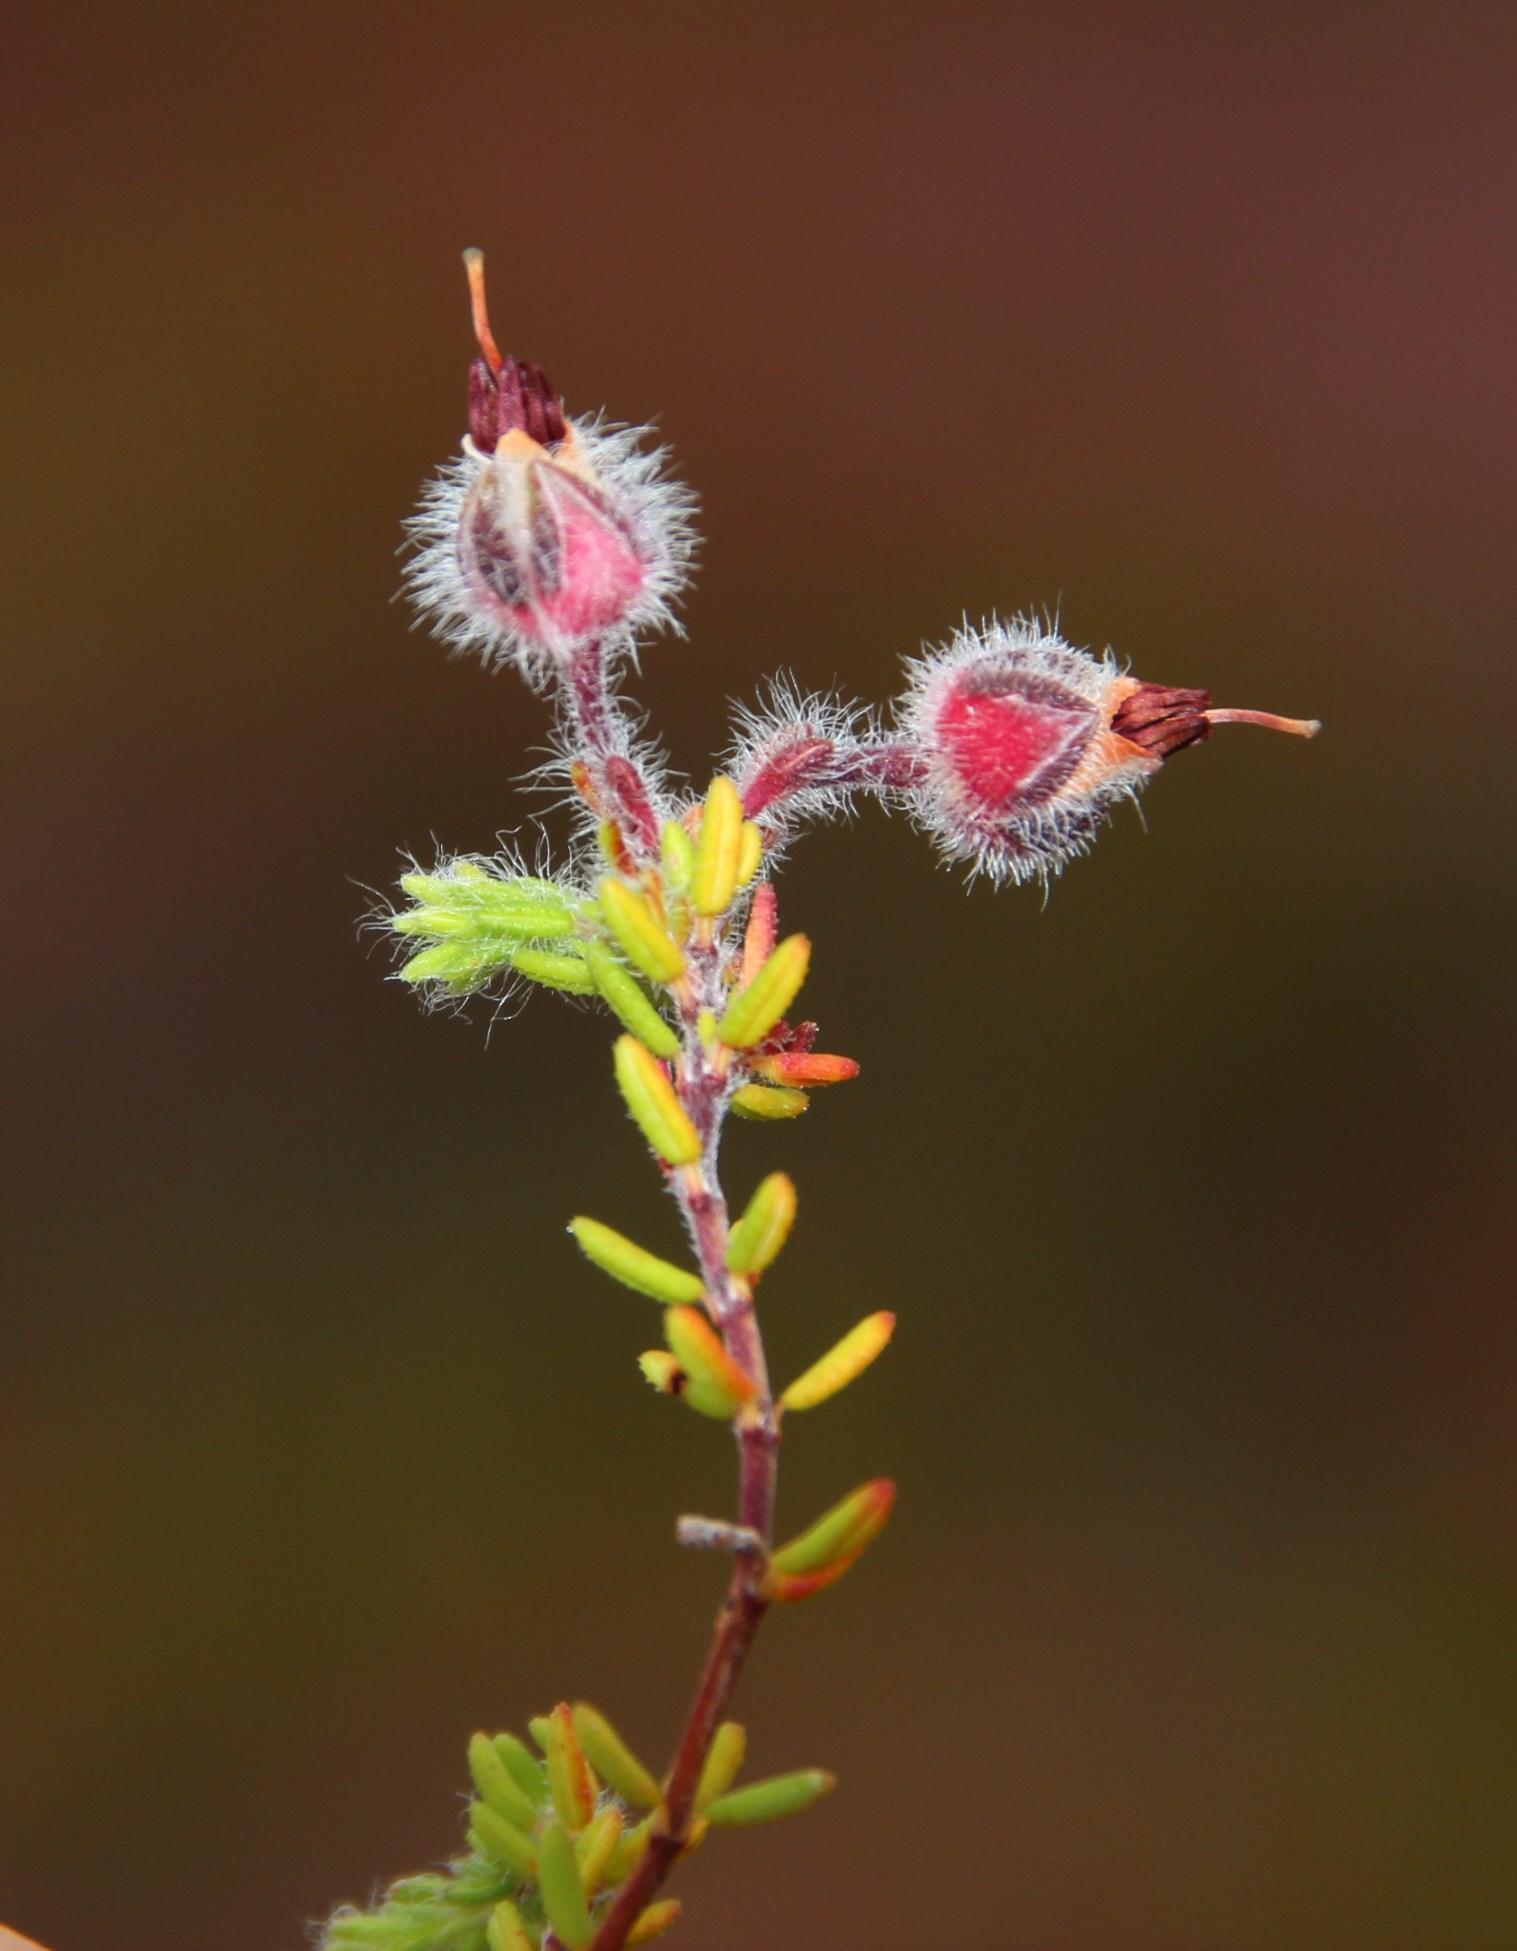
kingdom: Plantae
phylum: Tracheophyta
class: Magnoliopsida
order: Ericales
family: Ericaceae
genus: Erica
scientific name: Erica bruniades
